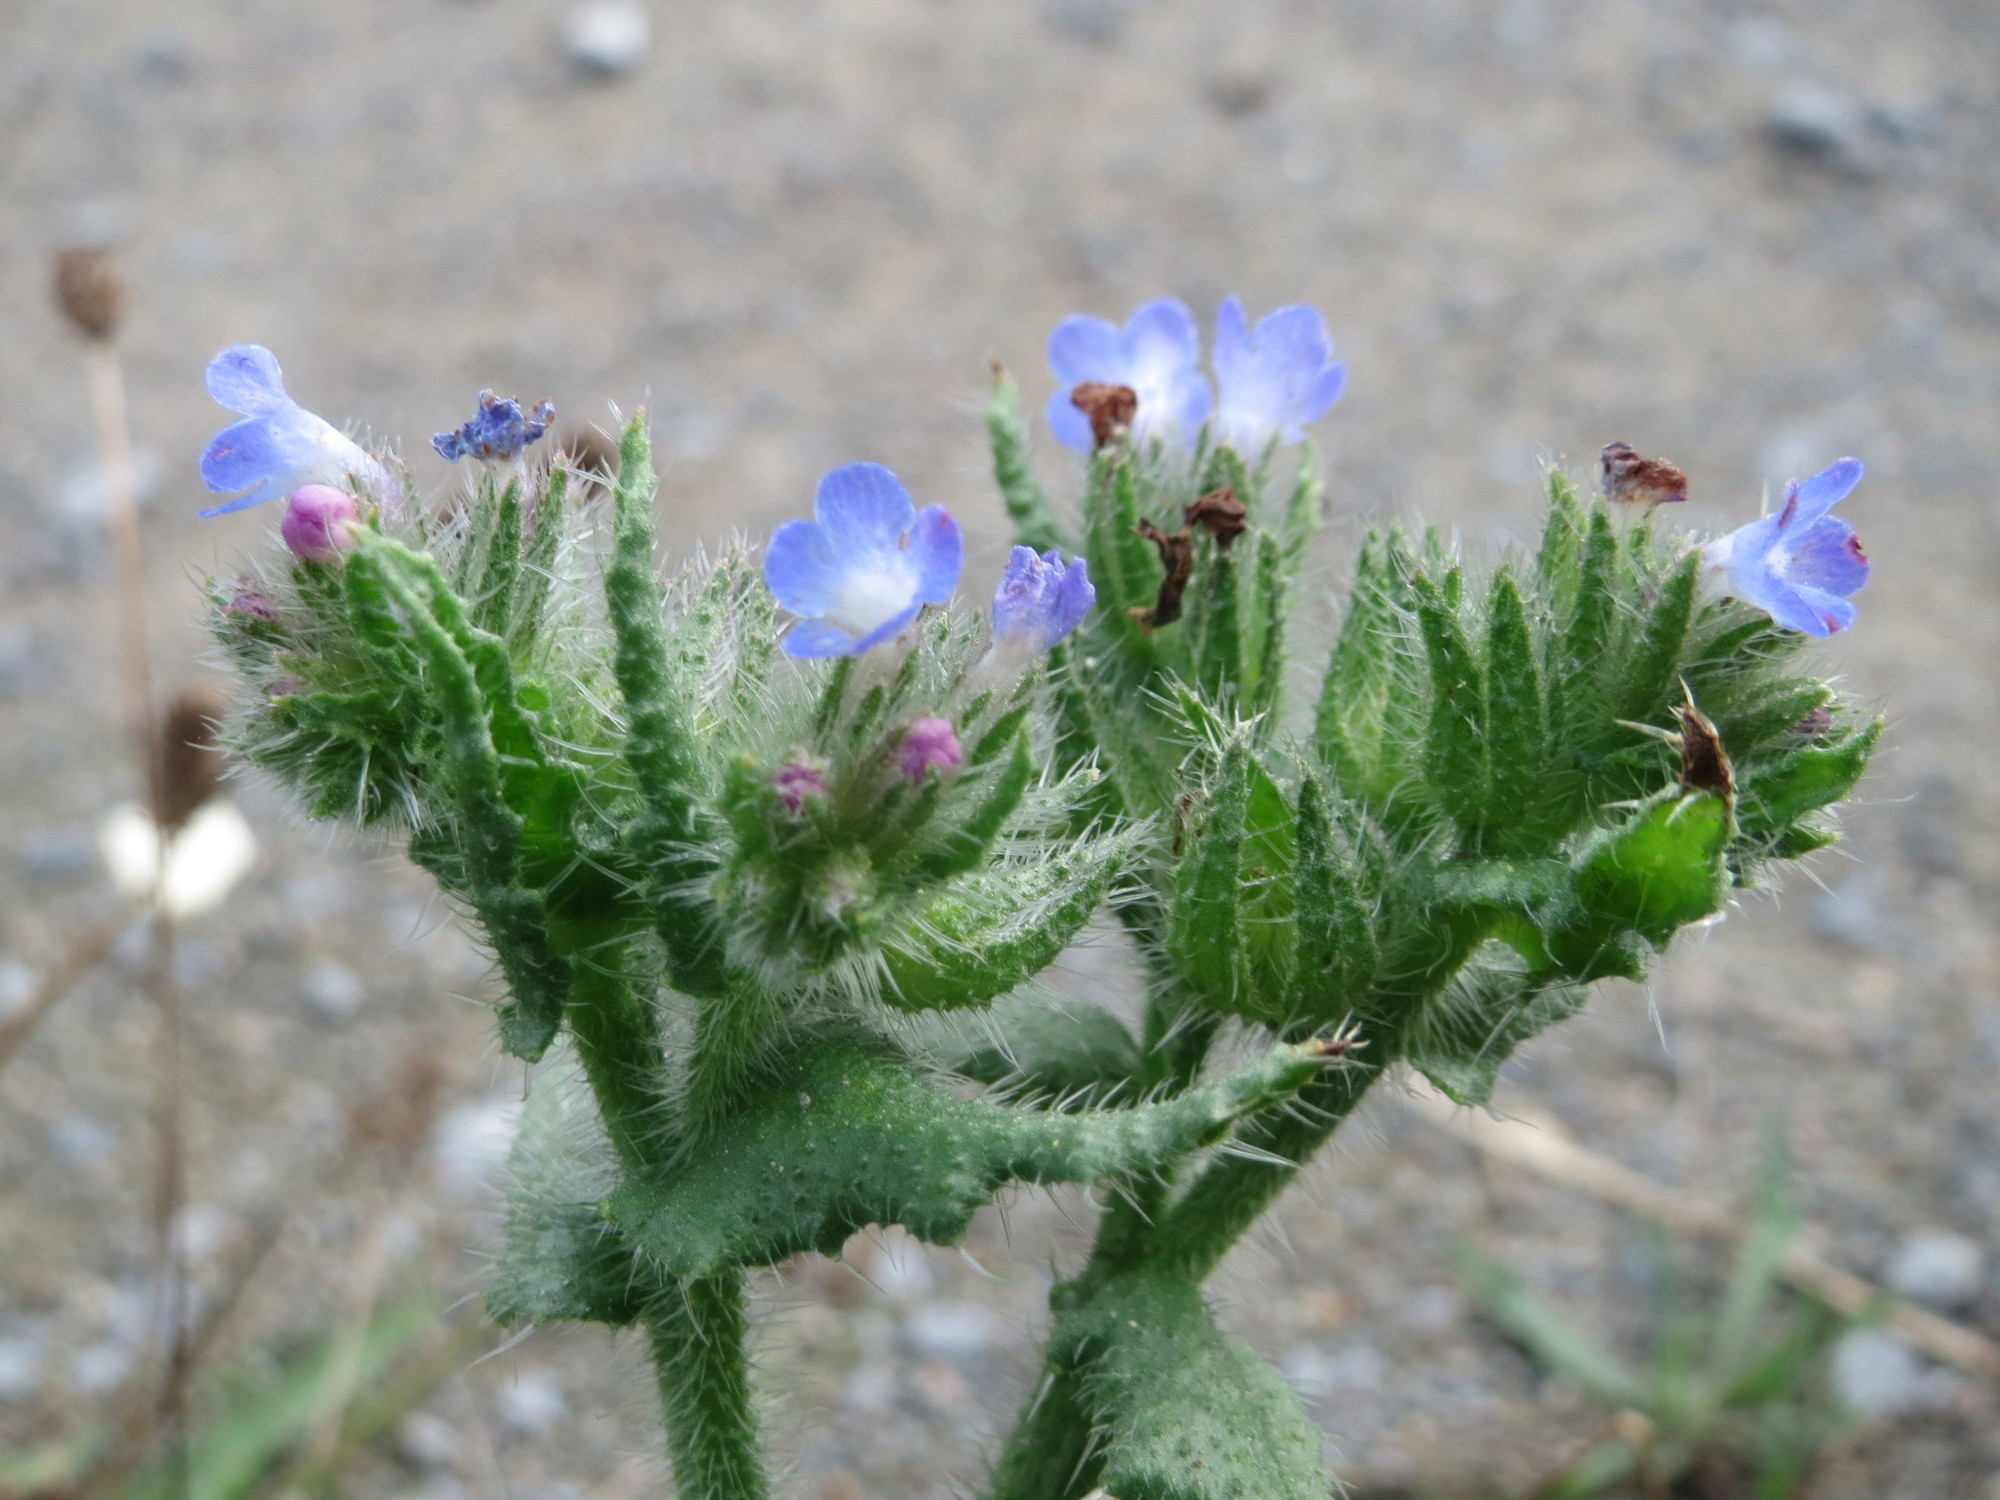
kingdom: Plantae
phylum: Tracheophyta
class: Magnoliopsida
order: Boraginales
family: Boraginaceae
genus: Lycopsis
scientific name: Lycopsis arvensis
